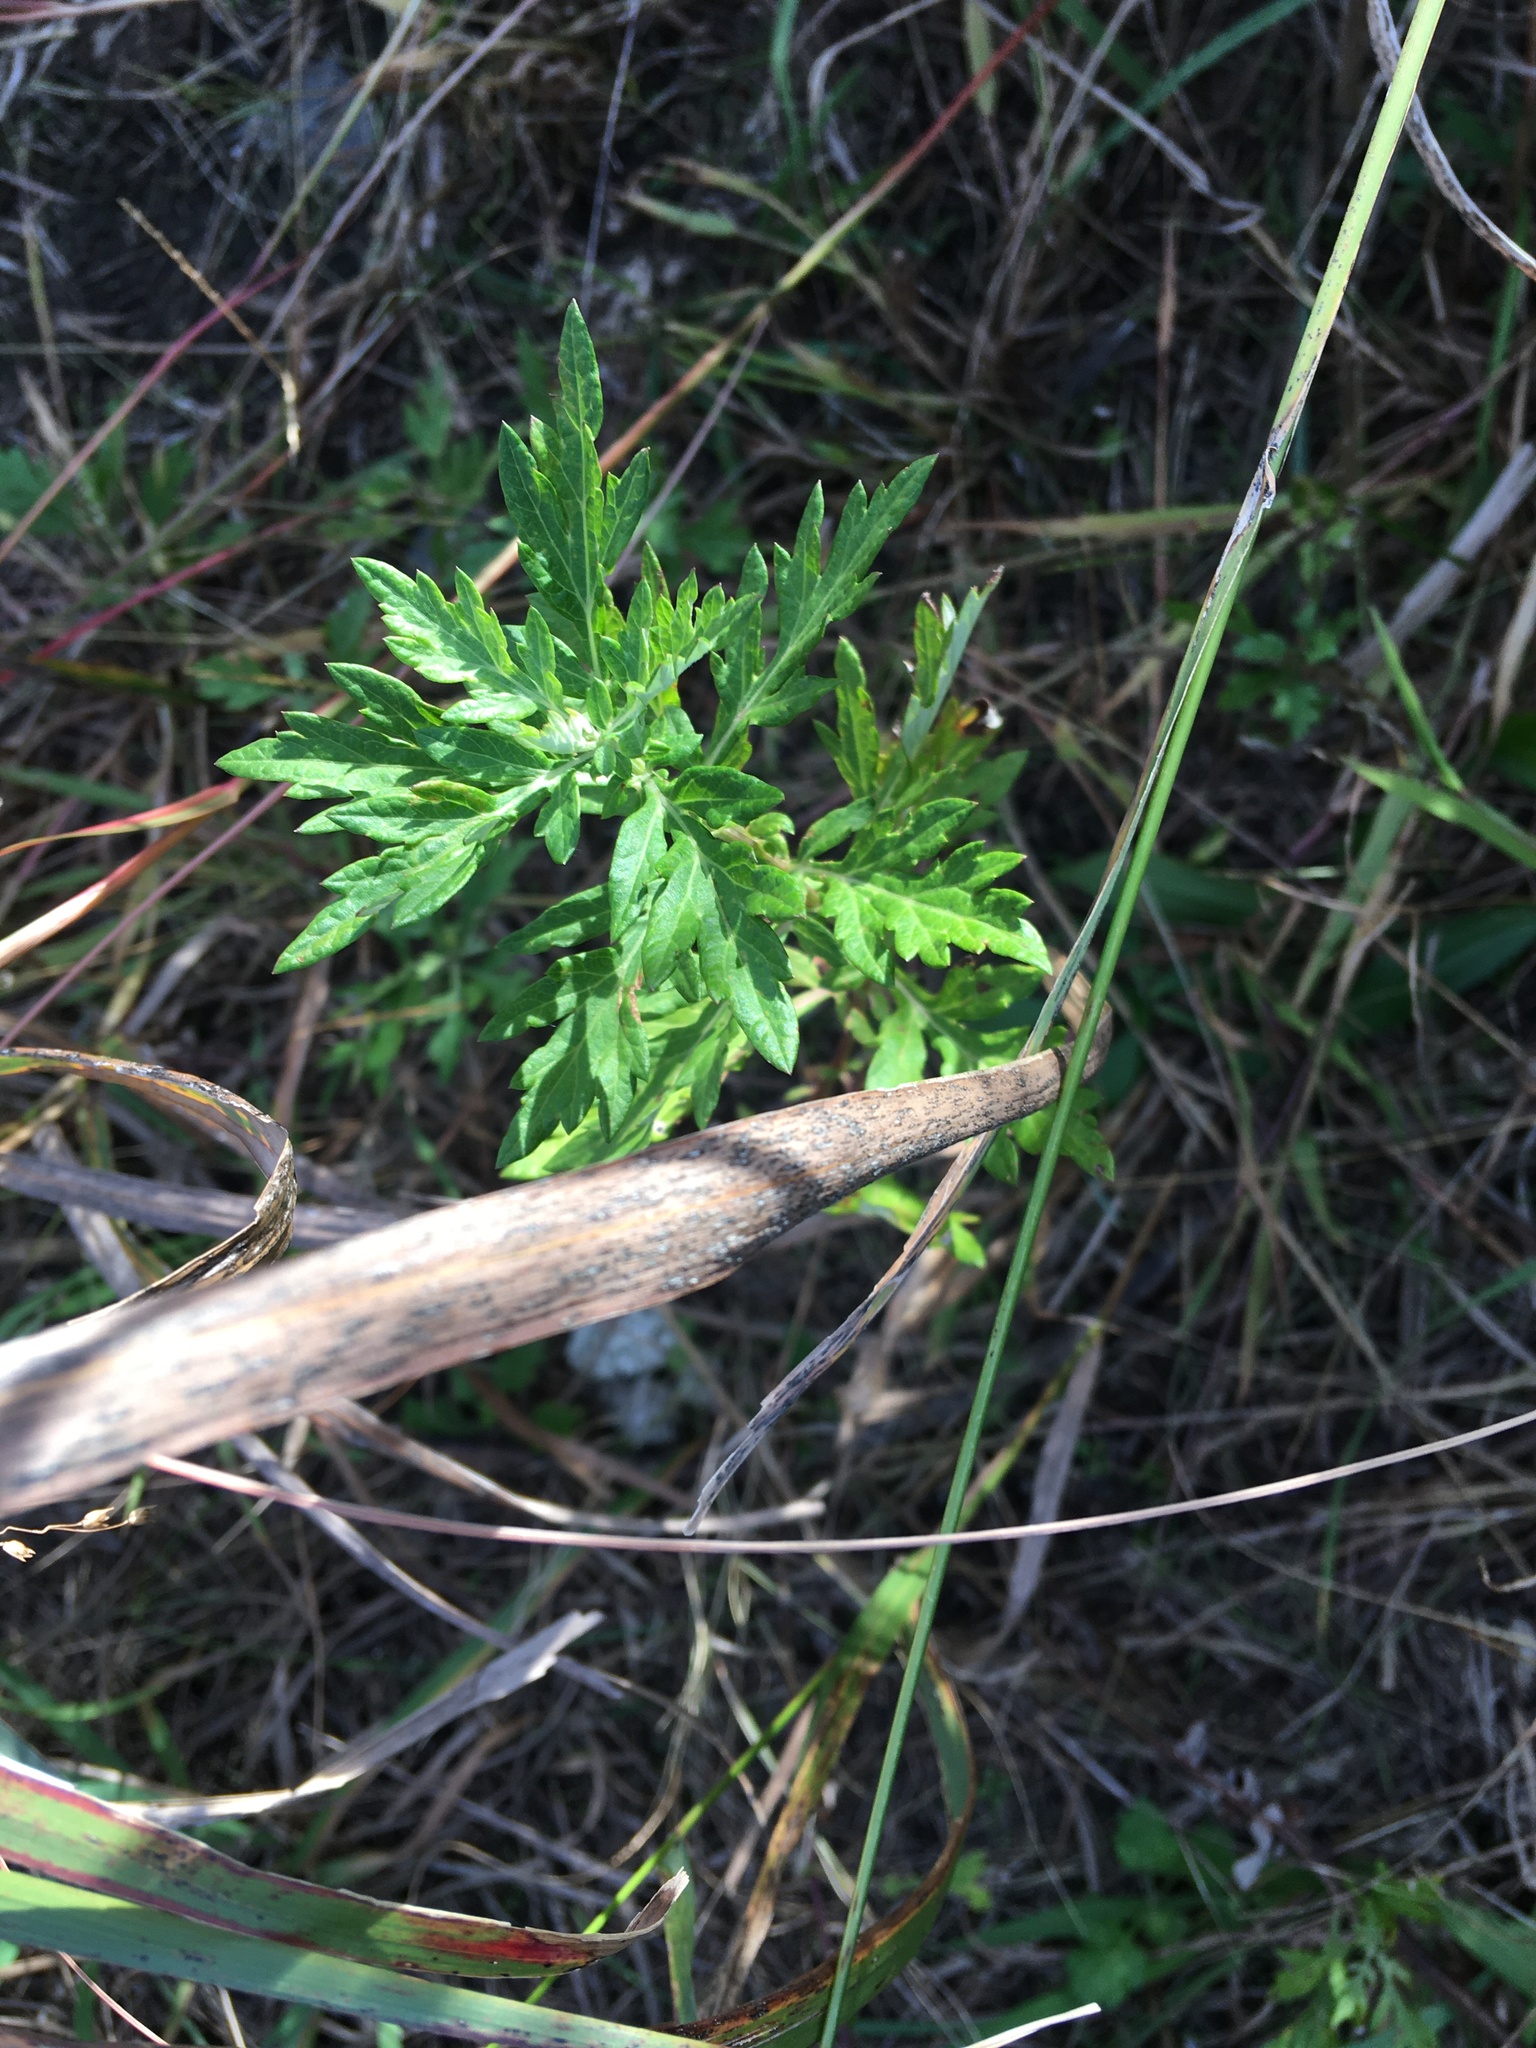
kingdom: Plantae
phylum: Tracheophyta
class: Magnoliopsida
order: Asterales
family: Asteraceae
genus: Artemisia
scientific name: Artemisia vulgaris
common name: Mugwort
